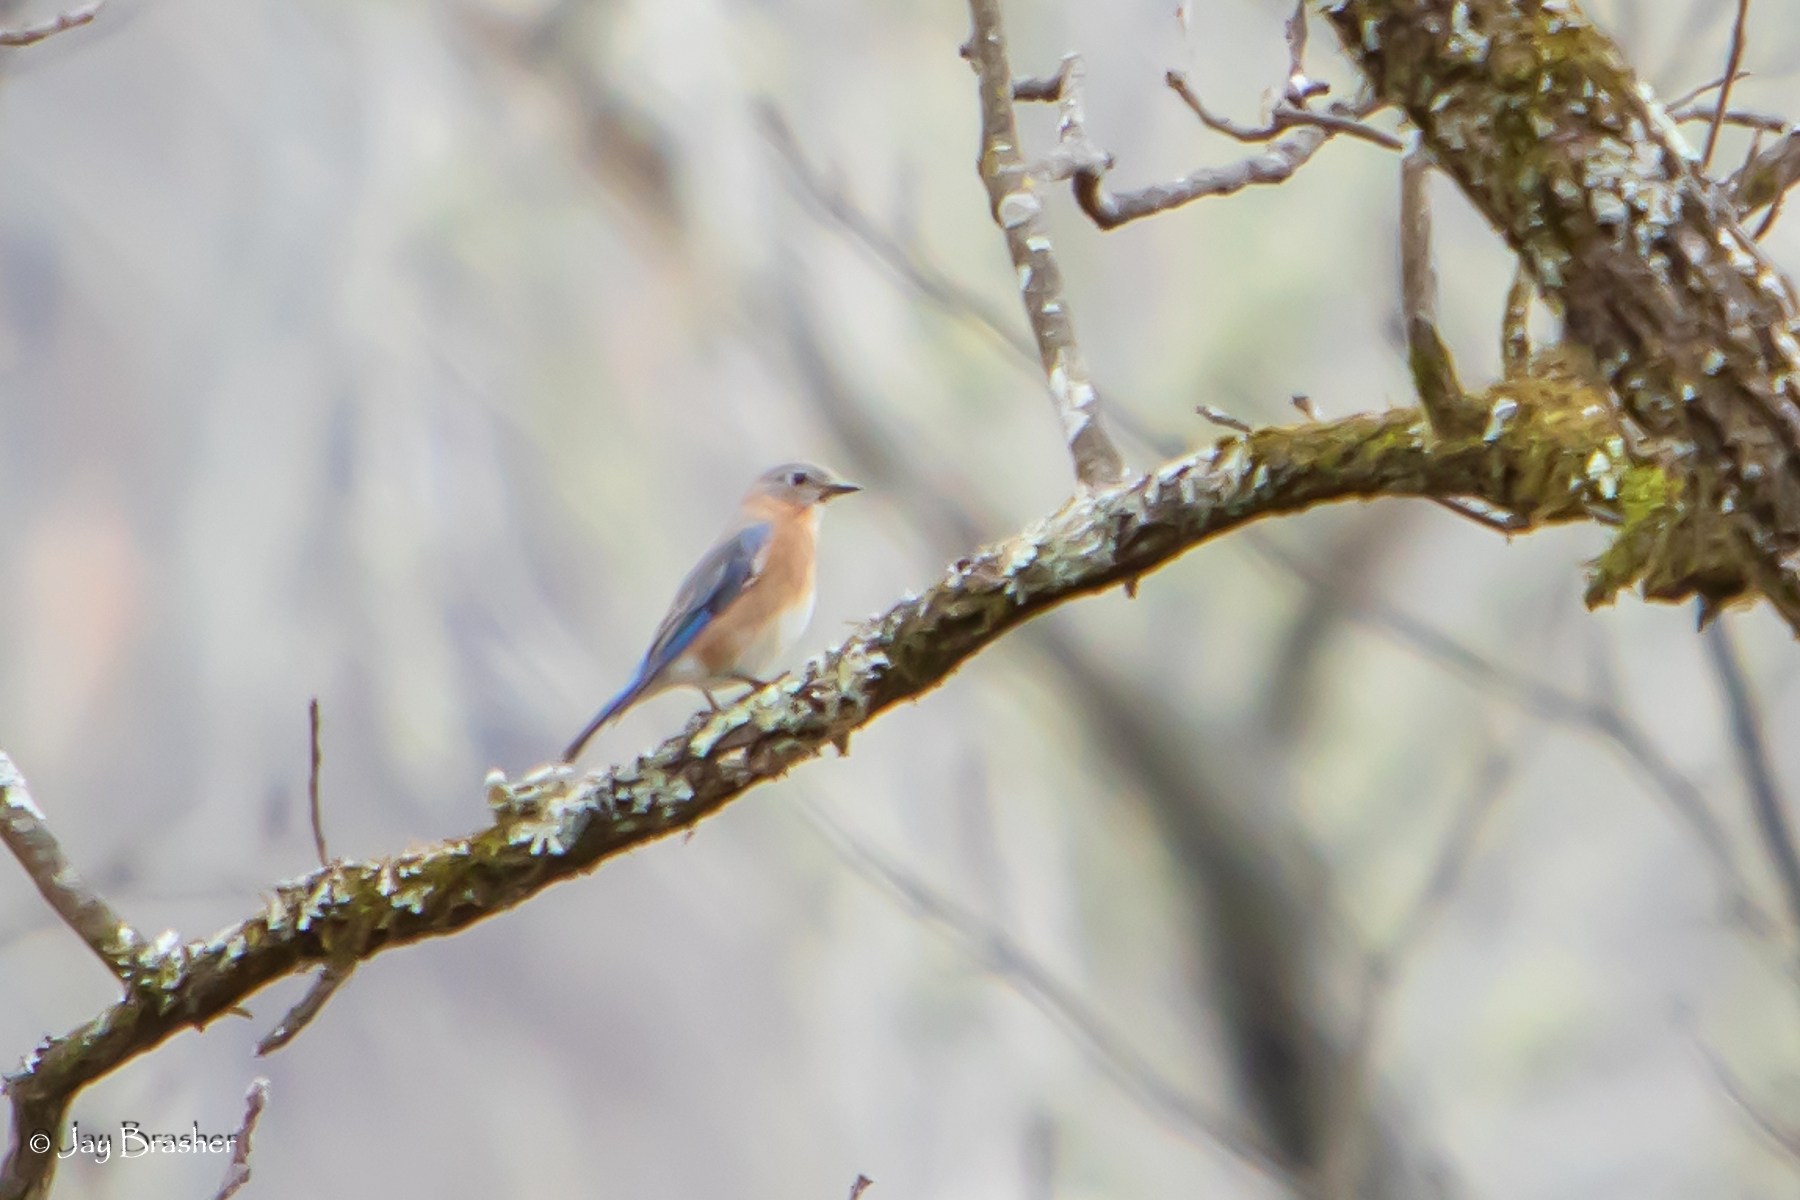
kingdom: Animalia
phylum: Chordata
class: Aves
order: Passeriformes
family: Turdidae
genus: Sialia
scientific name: Sialia sialis
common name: Eastern bluebird
